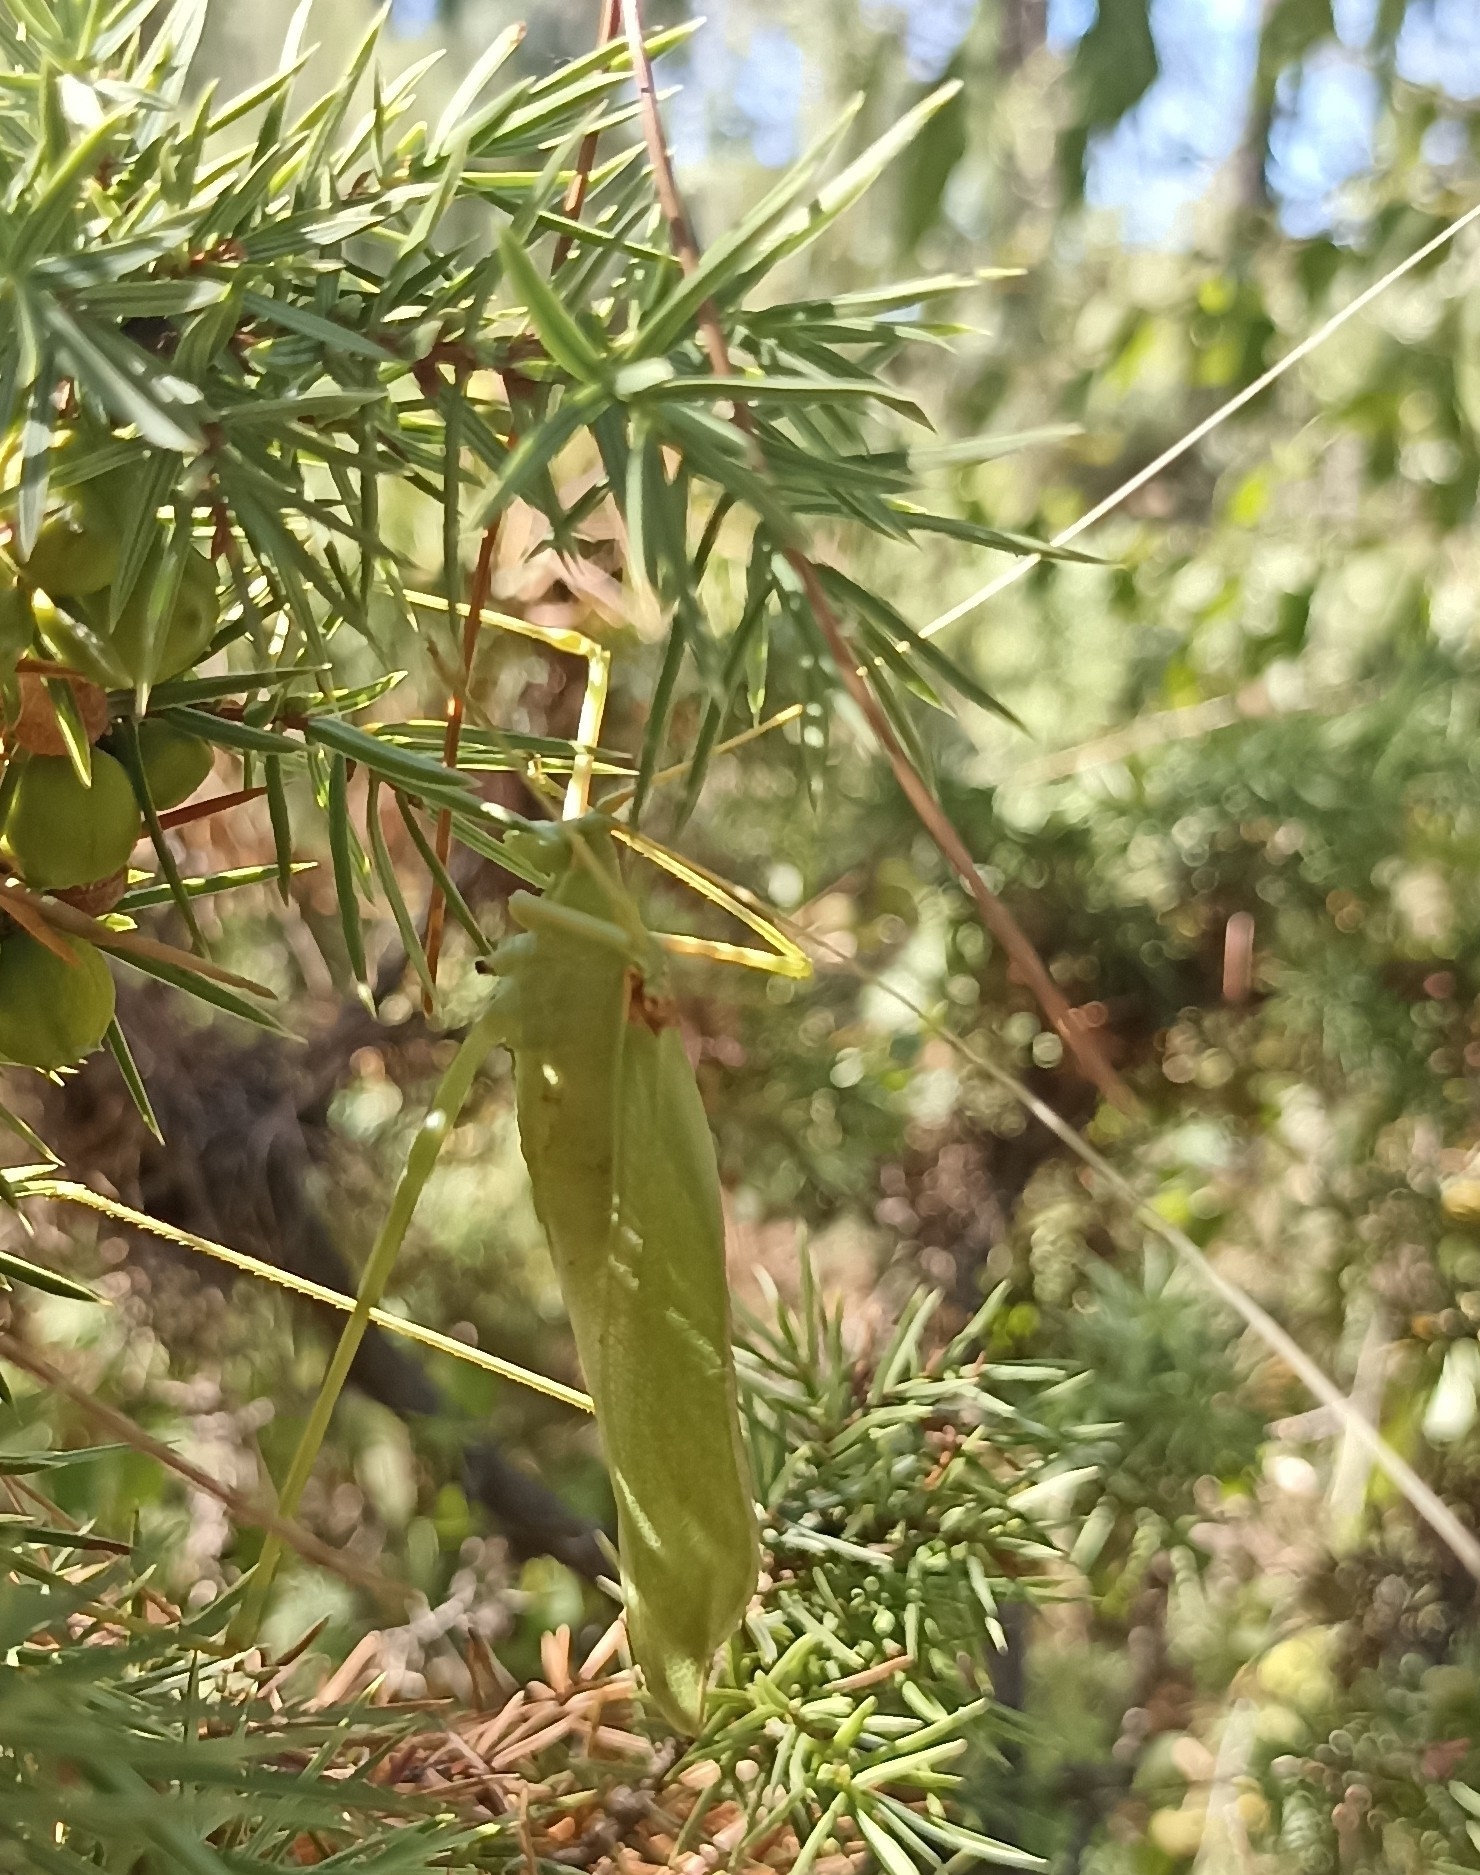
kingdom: Animalia
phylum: Arthropoda
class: Insecta
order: Orthoptera
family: Tettigoniidae
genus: Acrometopa
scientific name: Acrometopa macropoda
